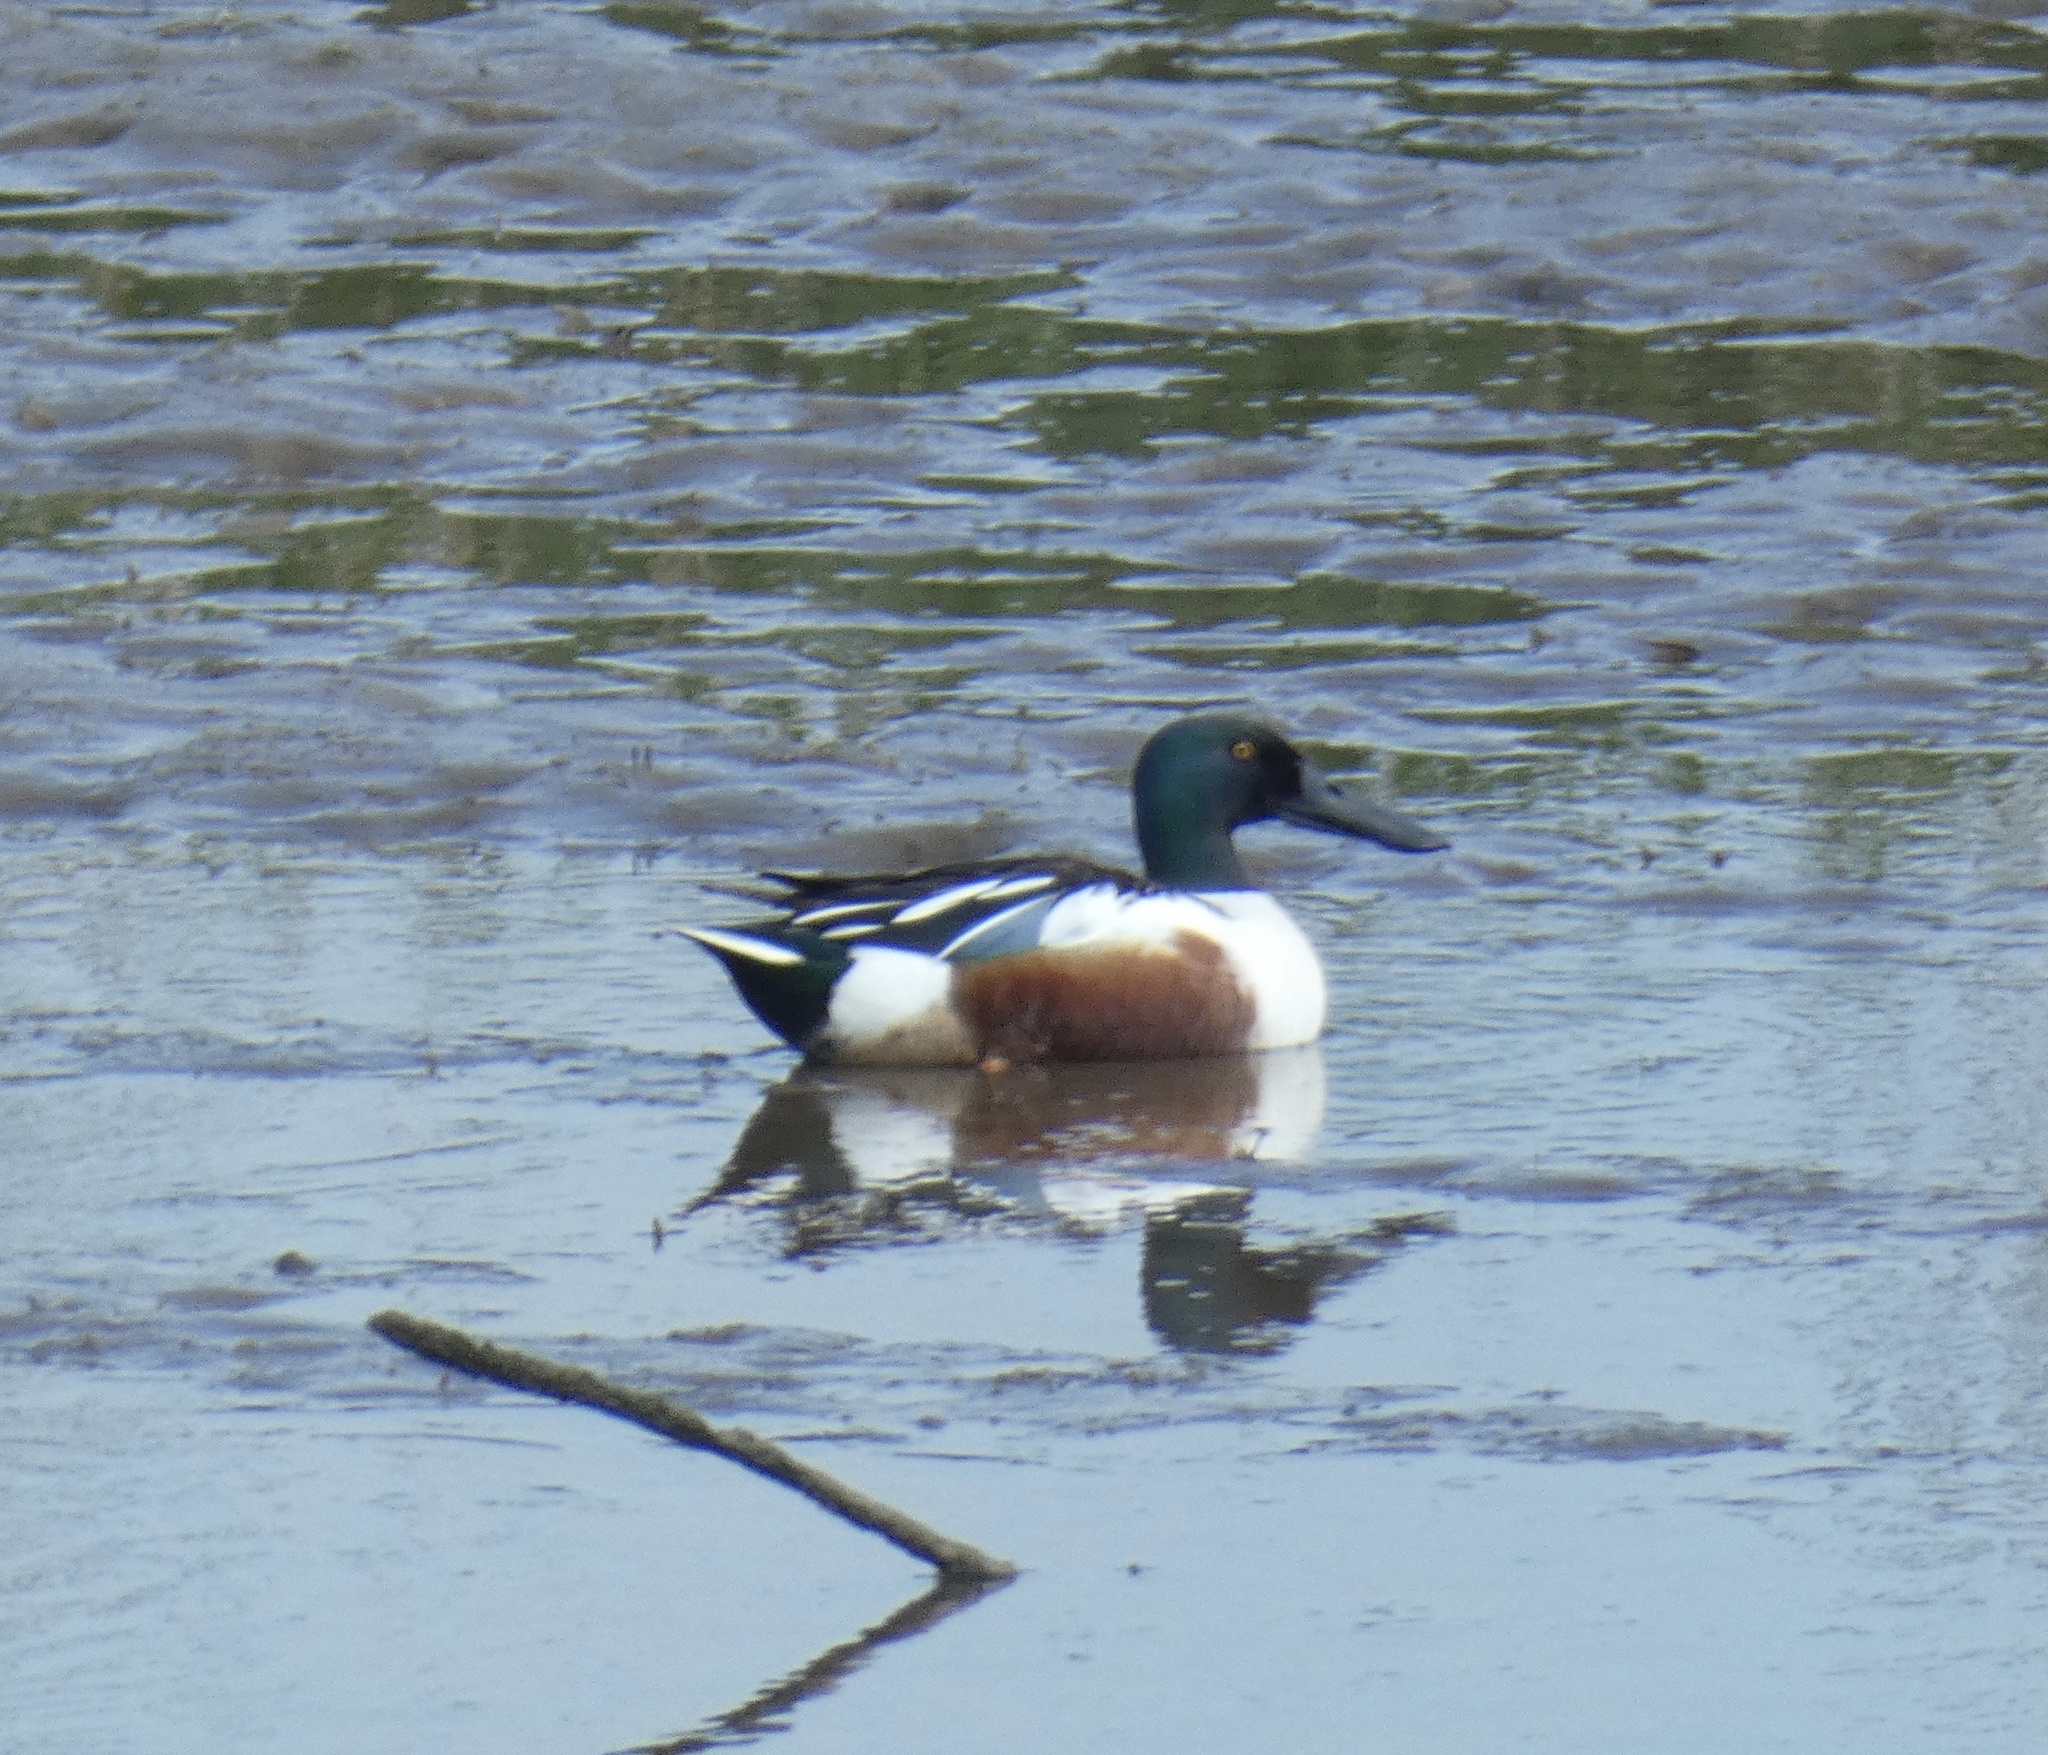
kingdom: Animalia
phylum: Chordata
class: Aves
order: Anseriformes
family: Anatidae
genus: Spatula
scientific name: Spatula clypeata
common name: Northern shoveler
